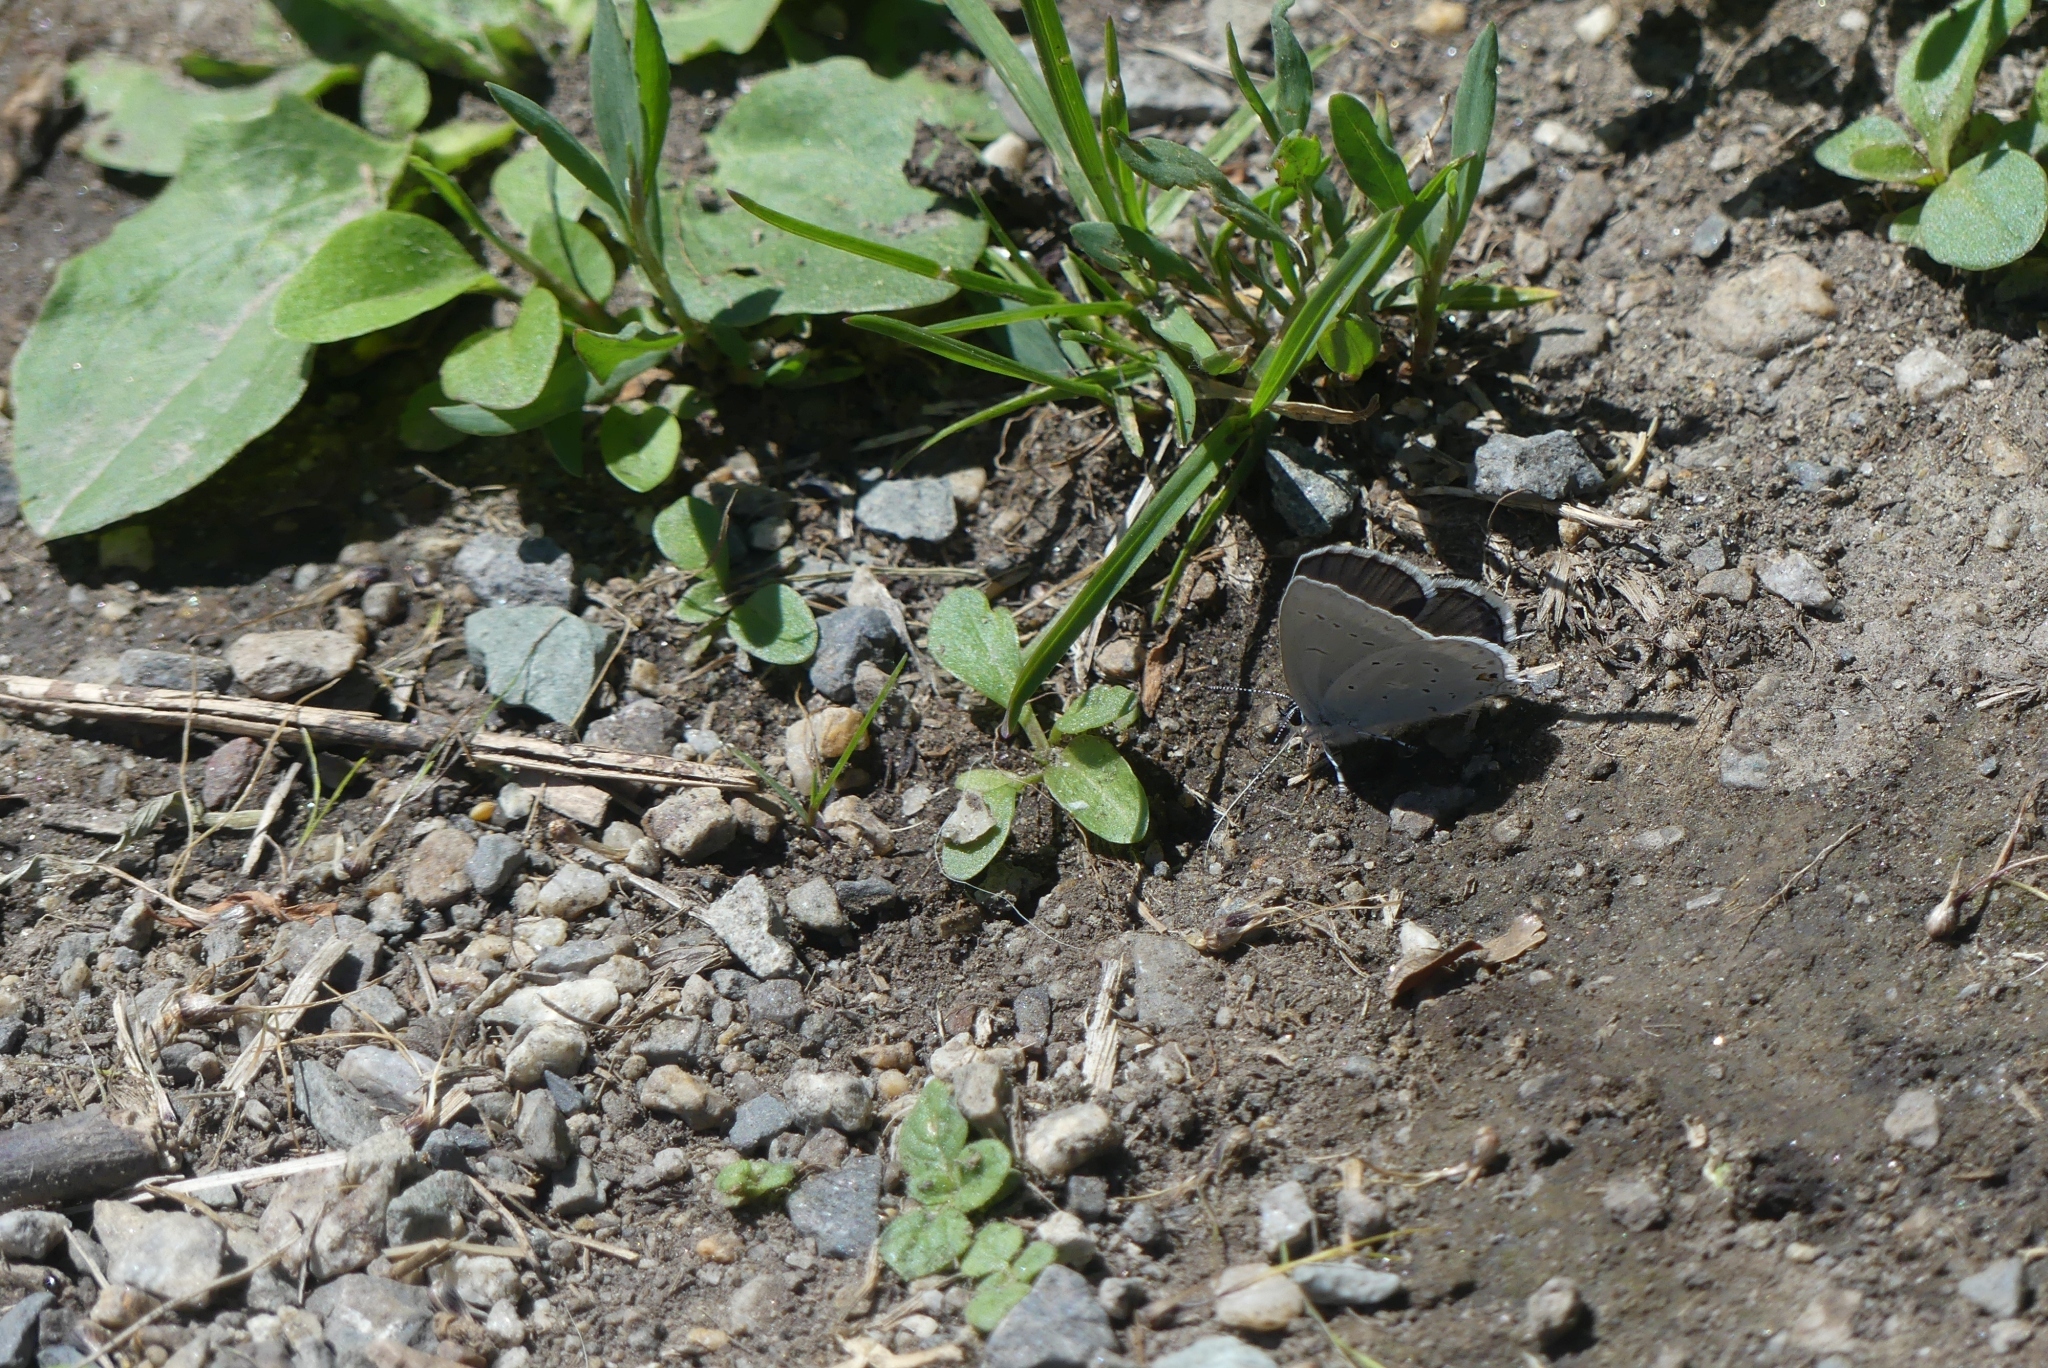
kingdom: Animalia
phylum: Arthropoda
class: Insecta
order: Lepidoptera
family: Lycaenidae
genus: Elkalyce
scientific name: Elkalyce amyntula
